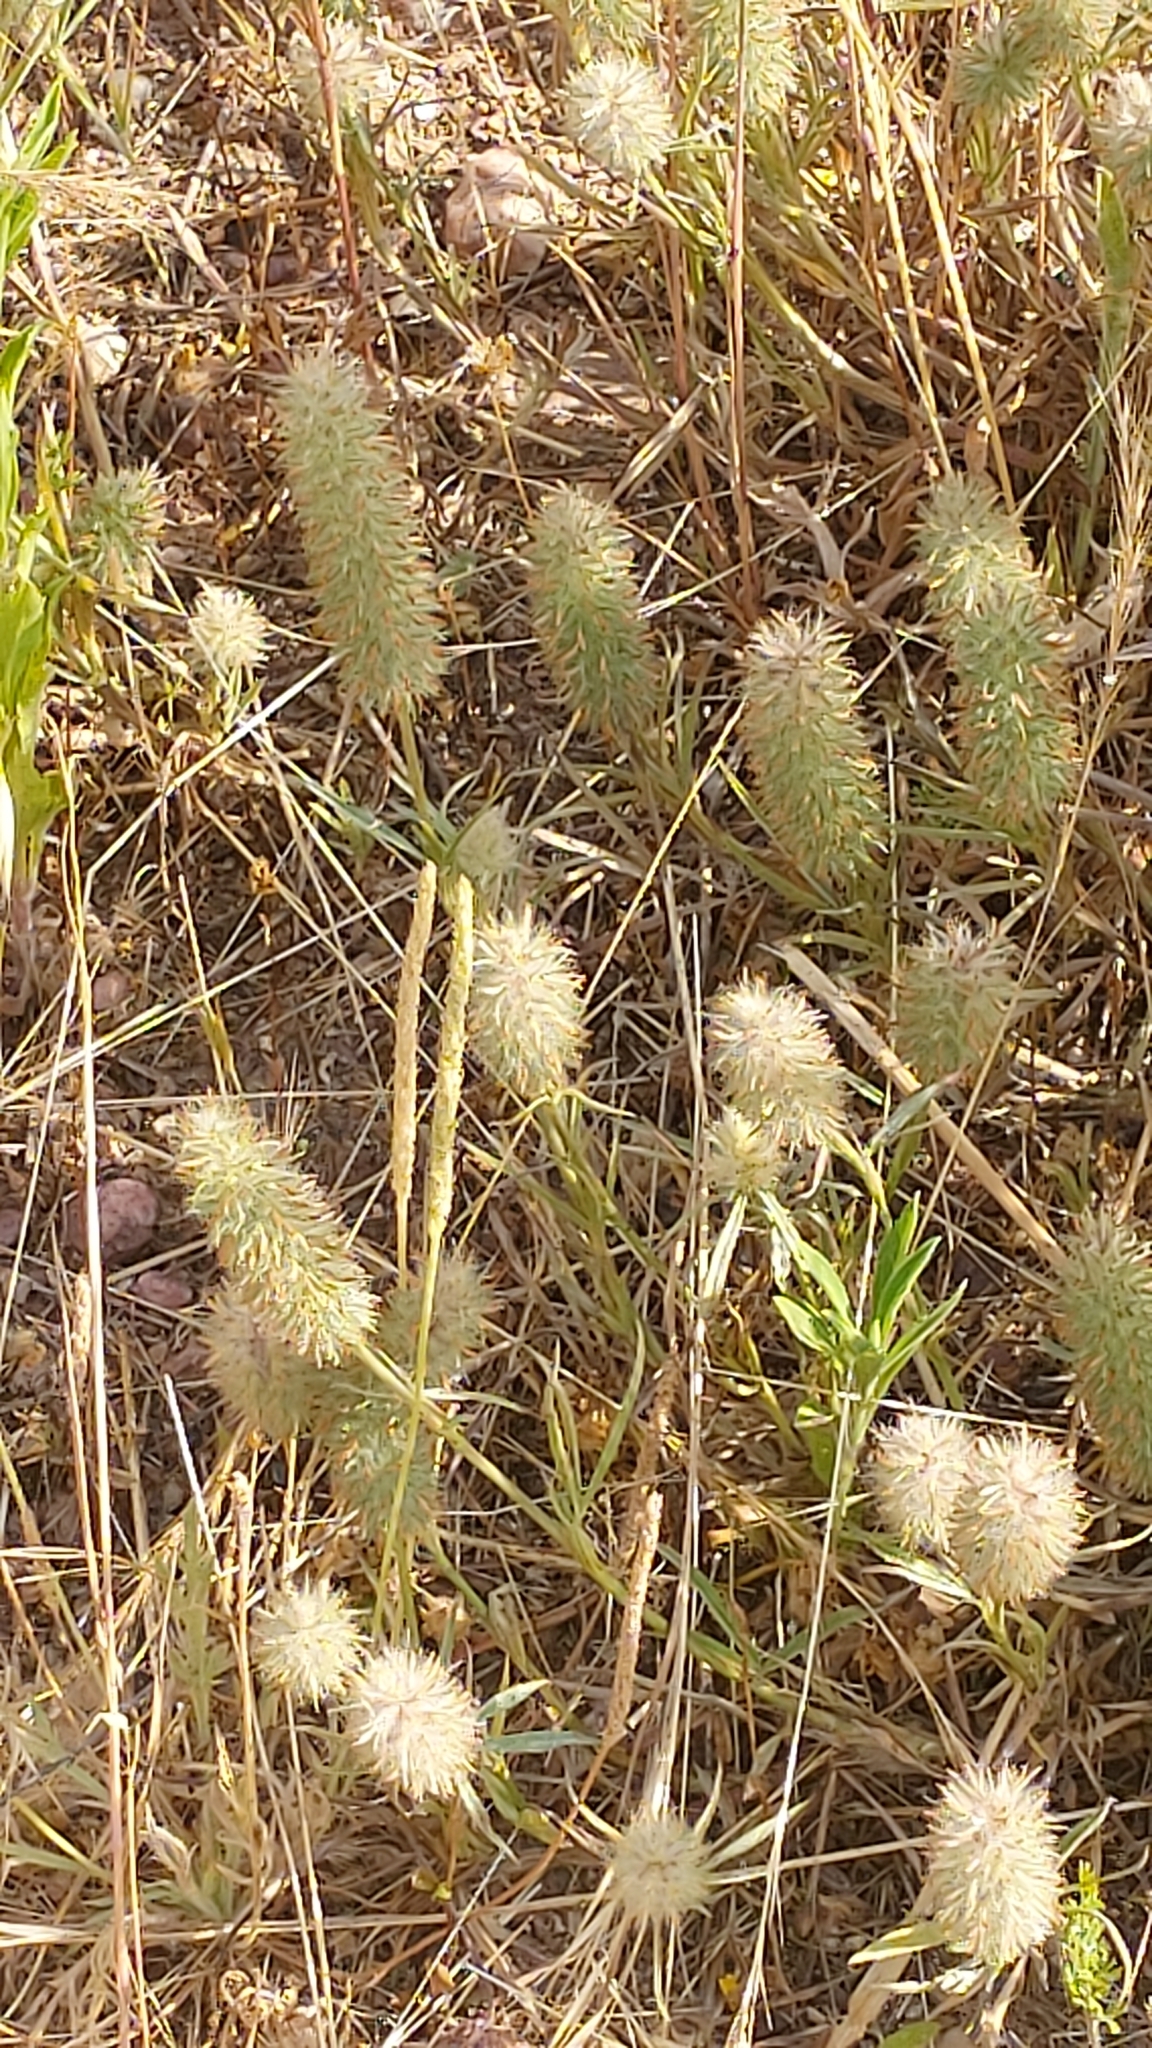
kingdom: Plantae
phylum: Tracheophyta
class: Magnoliopsida
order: Fabales
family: Fabaceae
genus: Trifolium
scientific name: Trifolium angustifolium
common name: Narrow clover
